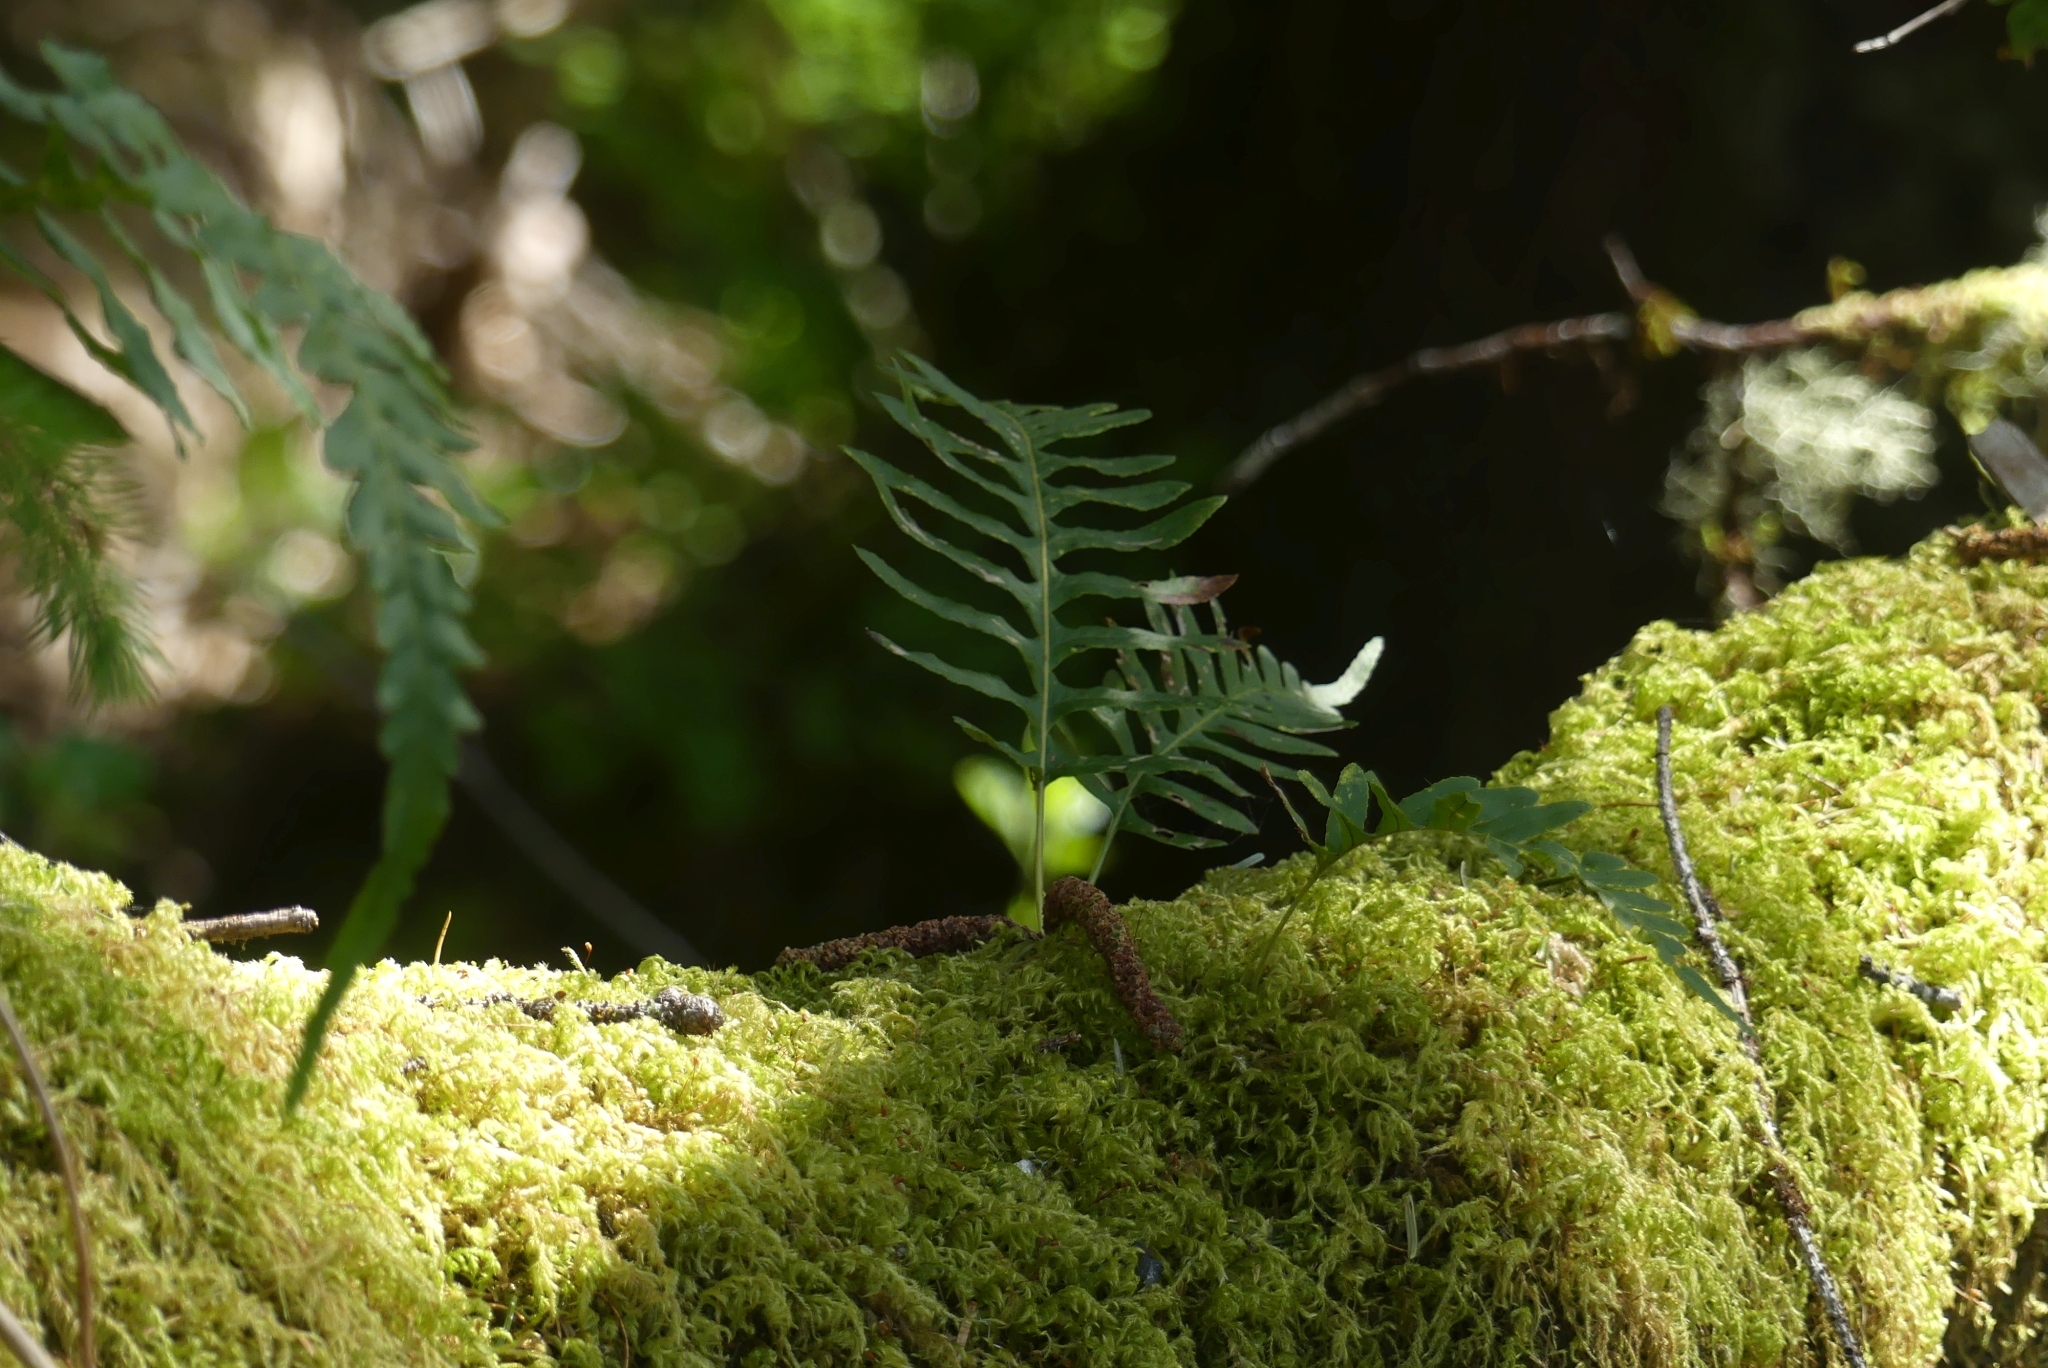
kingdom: Plantae
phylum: Tracheophyta
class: Polypodiopsida
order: Polypodiales
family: Polypodiaceae
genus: Polypodium
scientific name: Polypodium glycyrrhiza
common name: Licorice fern
